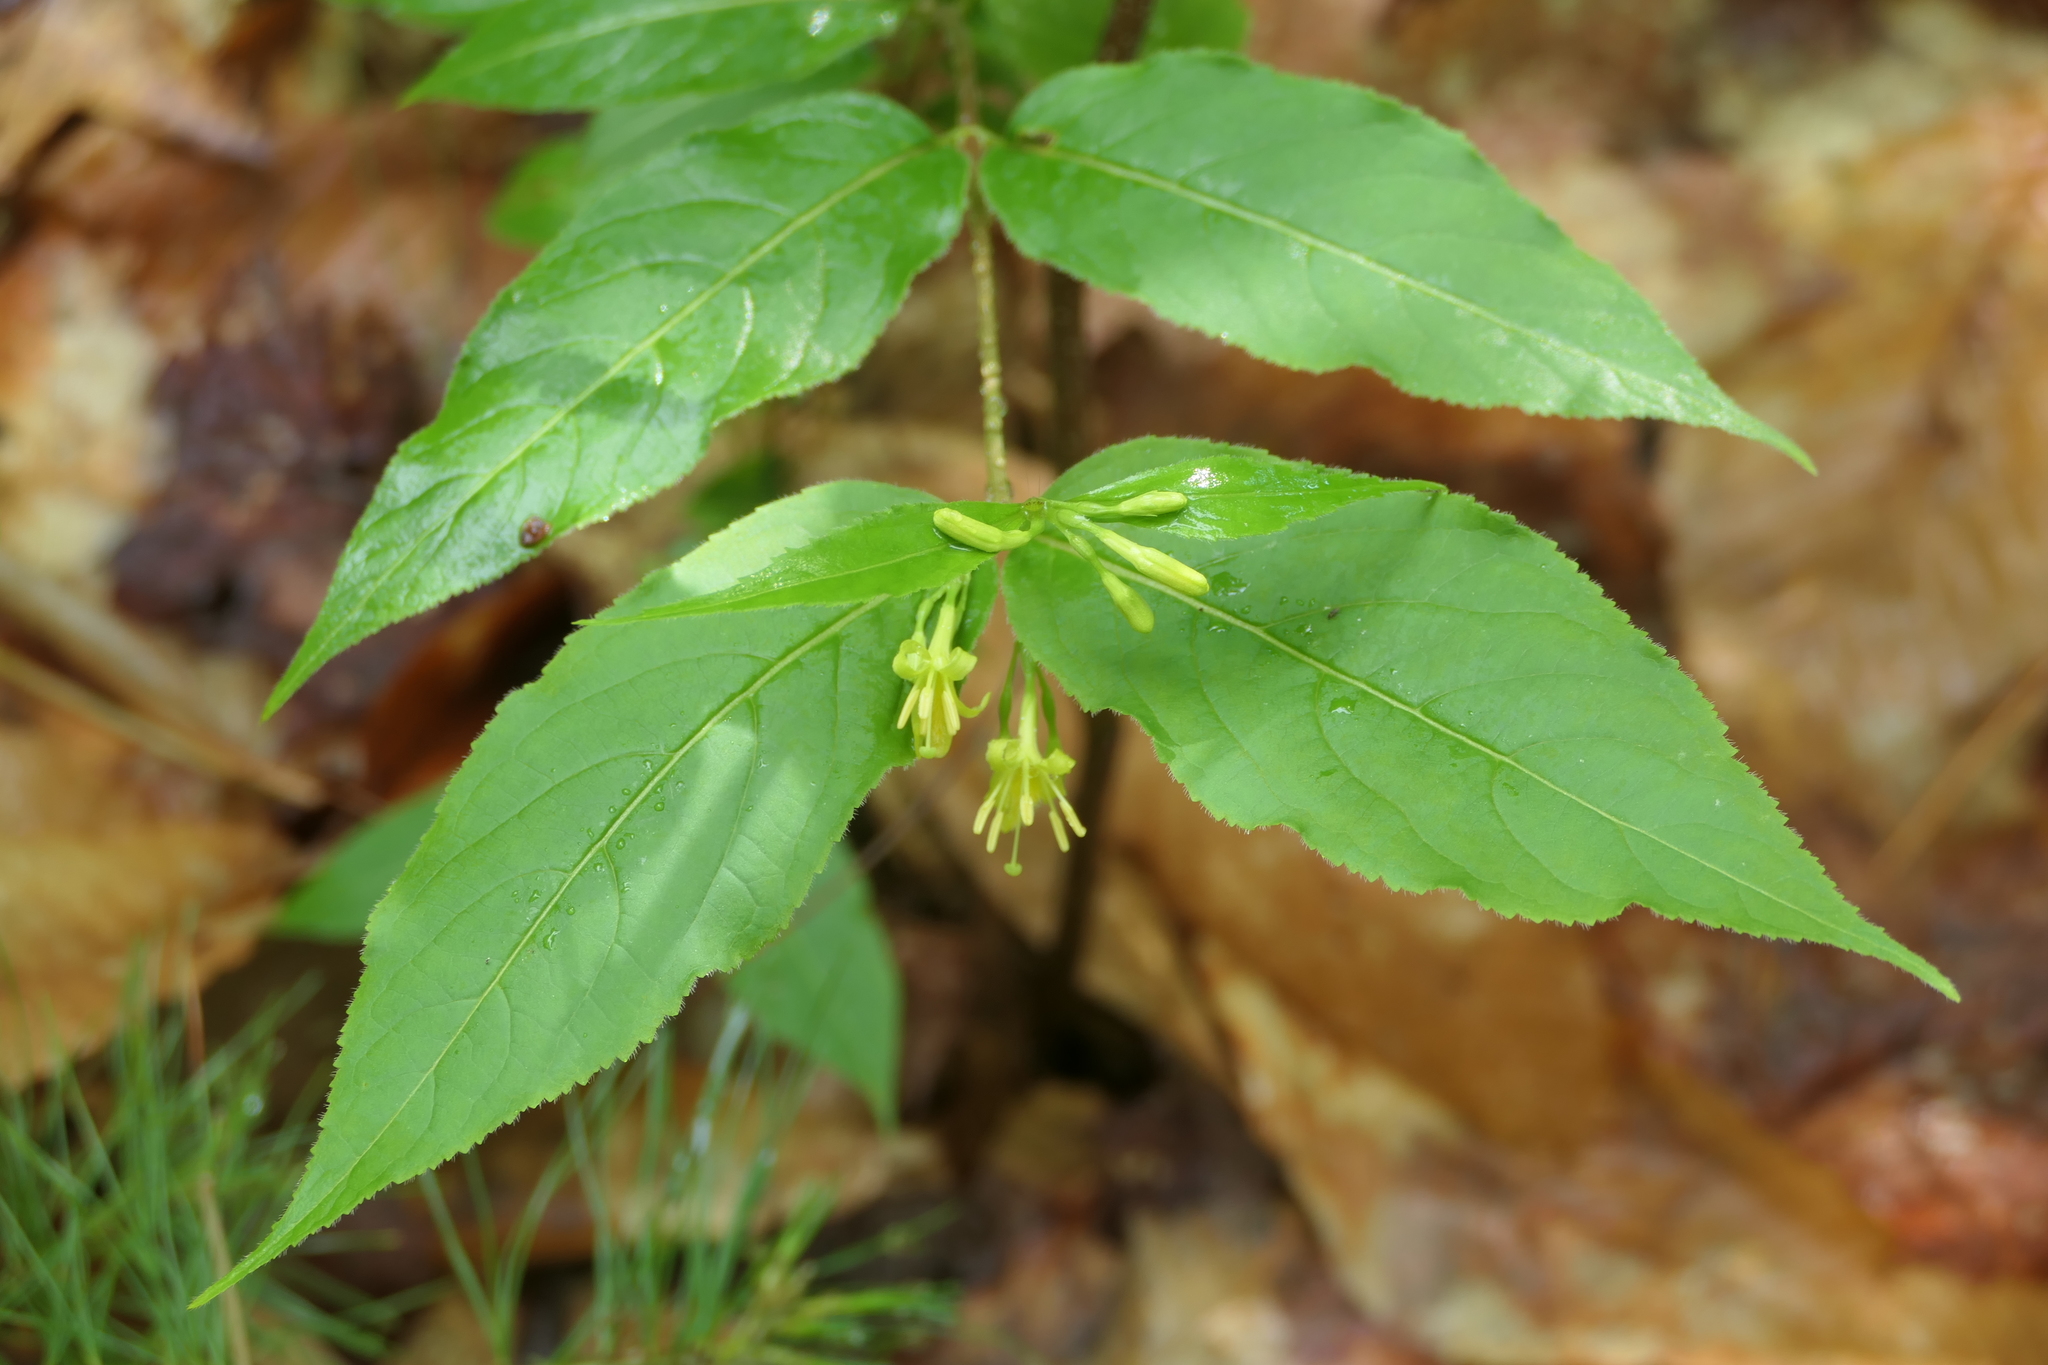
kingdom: Plantae
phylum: Tracheophyta
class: Magnoliopsida
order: Dipsacales
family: Caprifoliaceae
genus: Diervilla
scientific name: Diervilla lonicera
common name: Bush-honeysuckle
